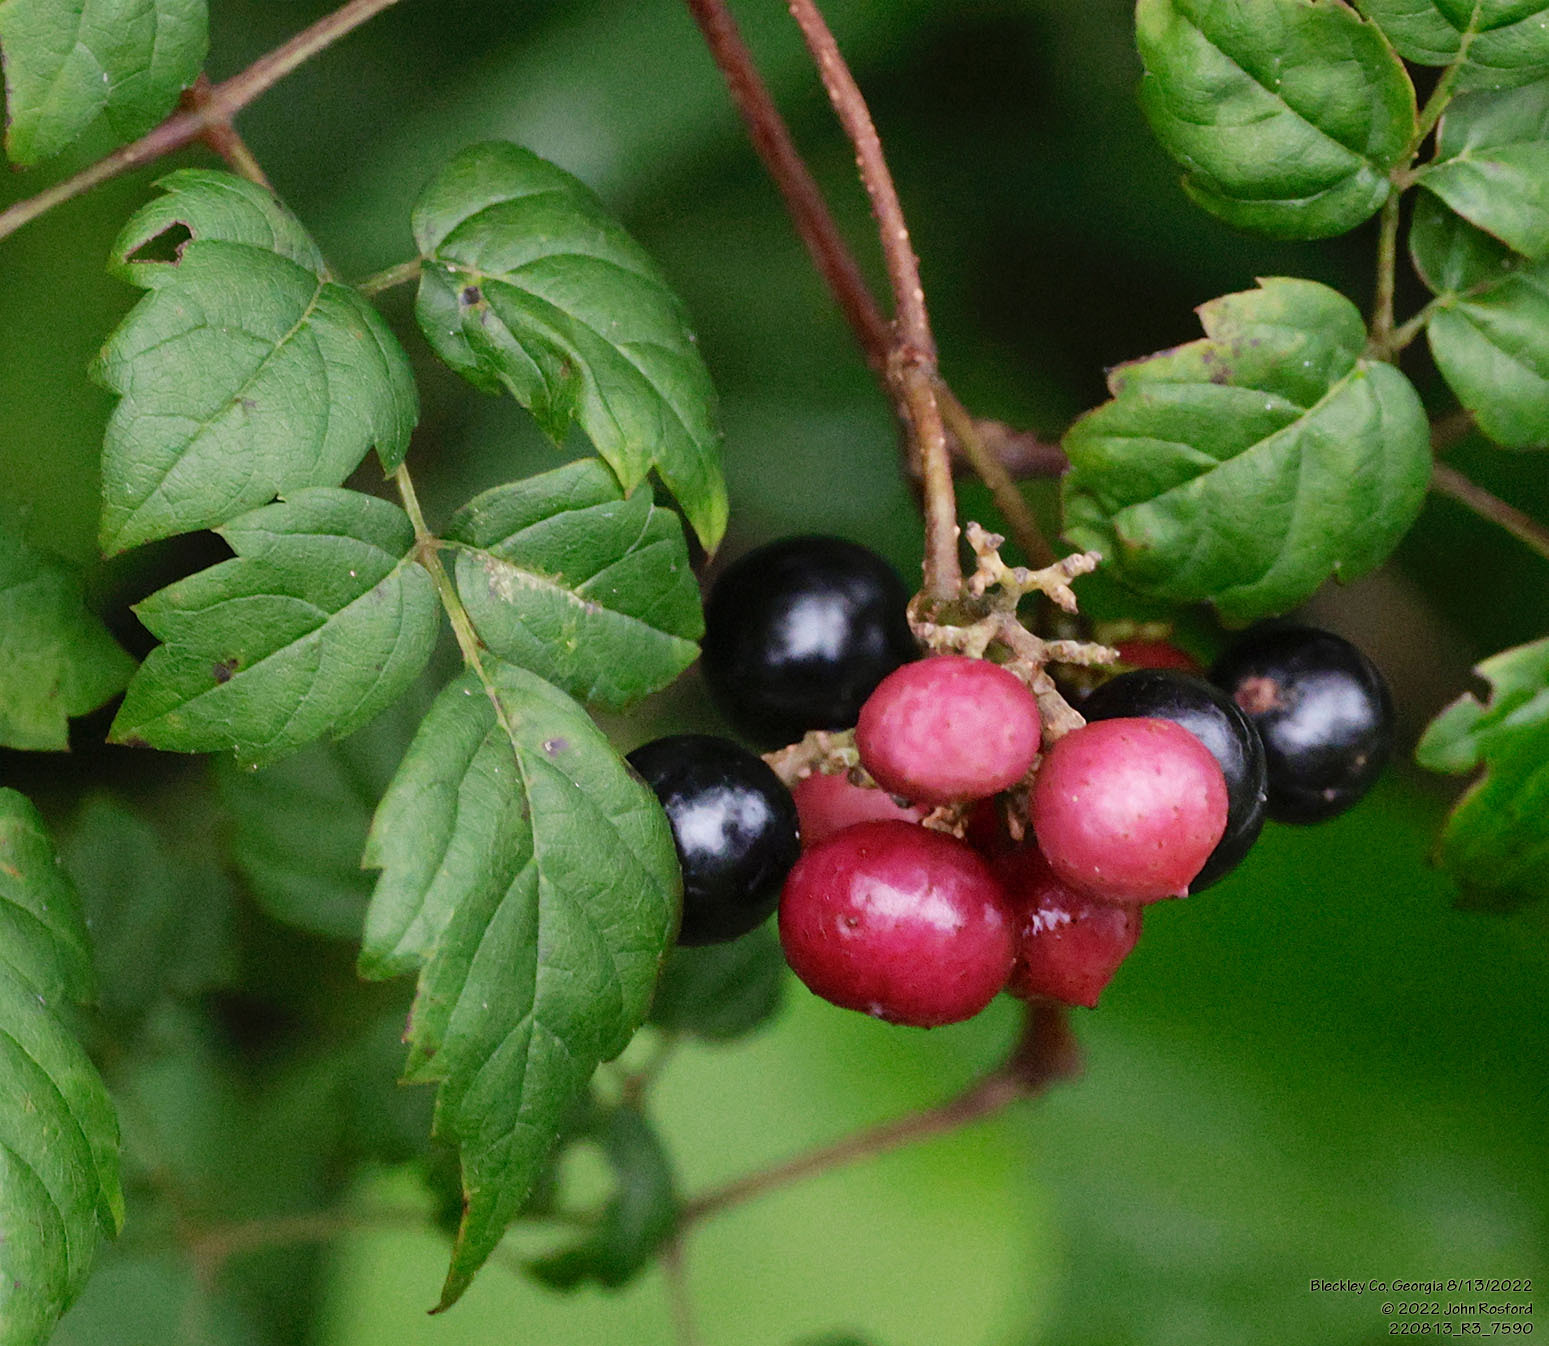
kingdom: Plantae
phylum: Tracheophyta
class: Magnoliopsida
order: Vitales
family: Vitaceae
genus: Nekemias
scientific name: Nekemias arborea
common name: Peppervine
